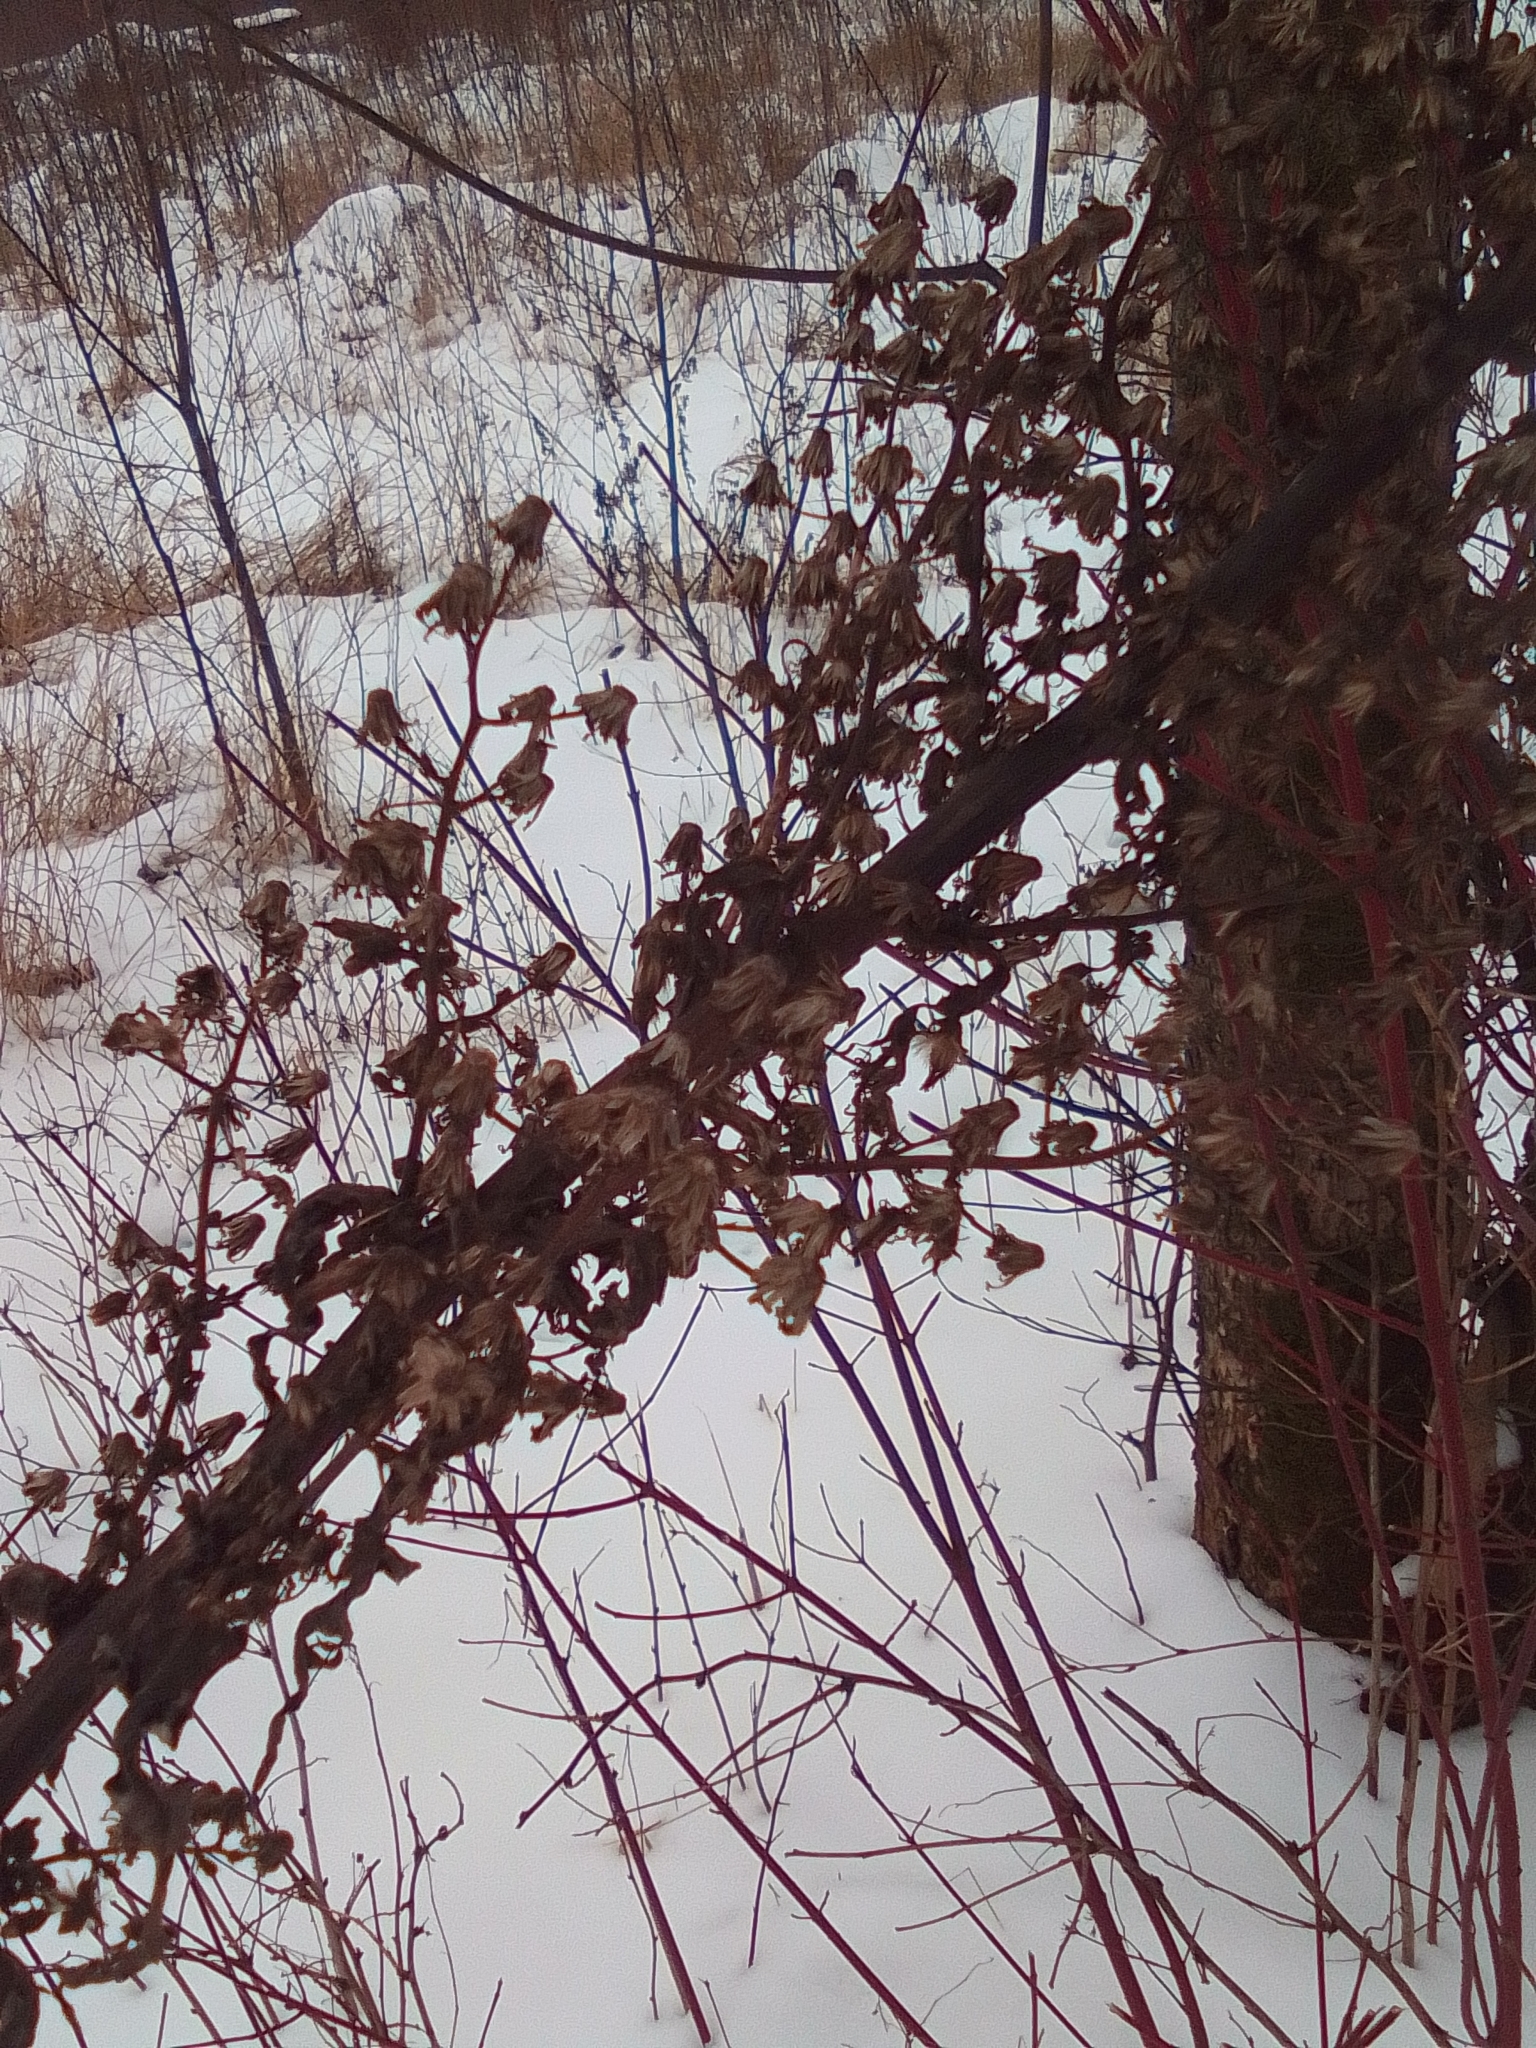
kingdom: Plantae
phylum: Tracheophyta
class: Magnoliopsida
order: Asterales
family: Asteraceae
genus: Lactuca
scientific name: Lactuca biennis
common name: Blue wood lettuce
